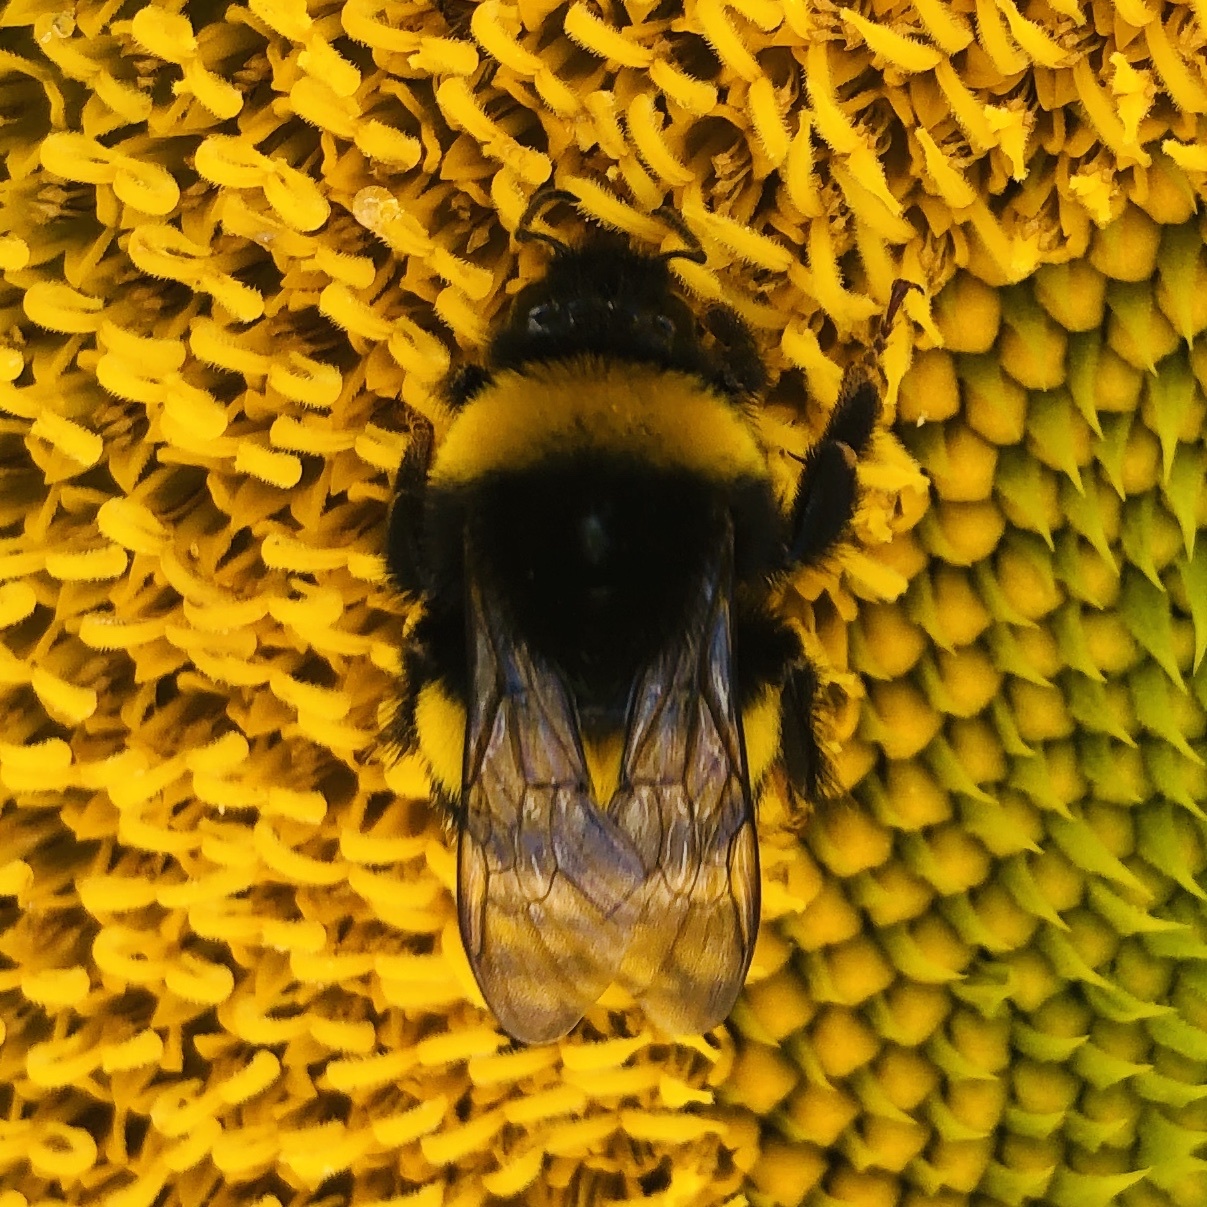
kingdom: Animalia
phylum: Arthropoda
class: Insecta
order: Hymenoptera
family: Apidae
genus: Bombus
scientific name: Bombus terrestris
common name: Buff-tailed bumblebee
